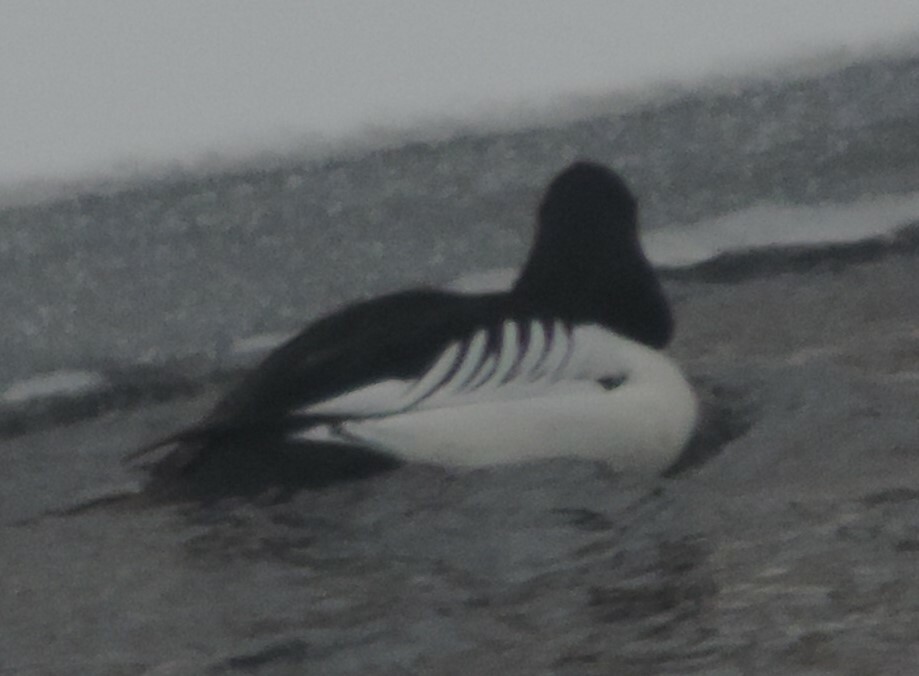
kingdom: Animalia
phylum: Chordata
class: Aves
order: Anseriformes
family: Anatidae
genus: Bucephala
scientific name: Bucephala clangula
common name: Common goldeneye
